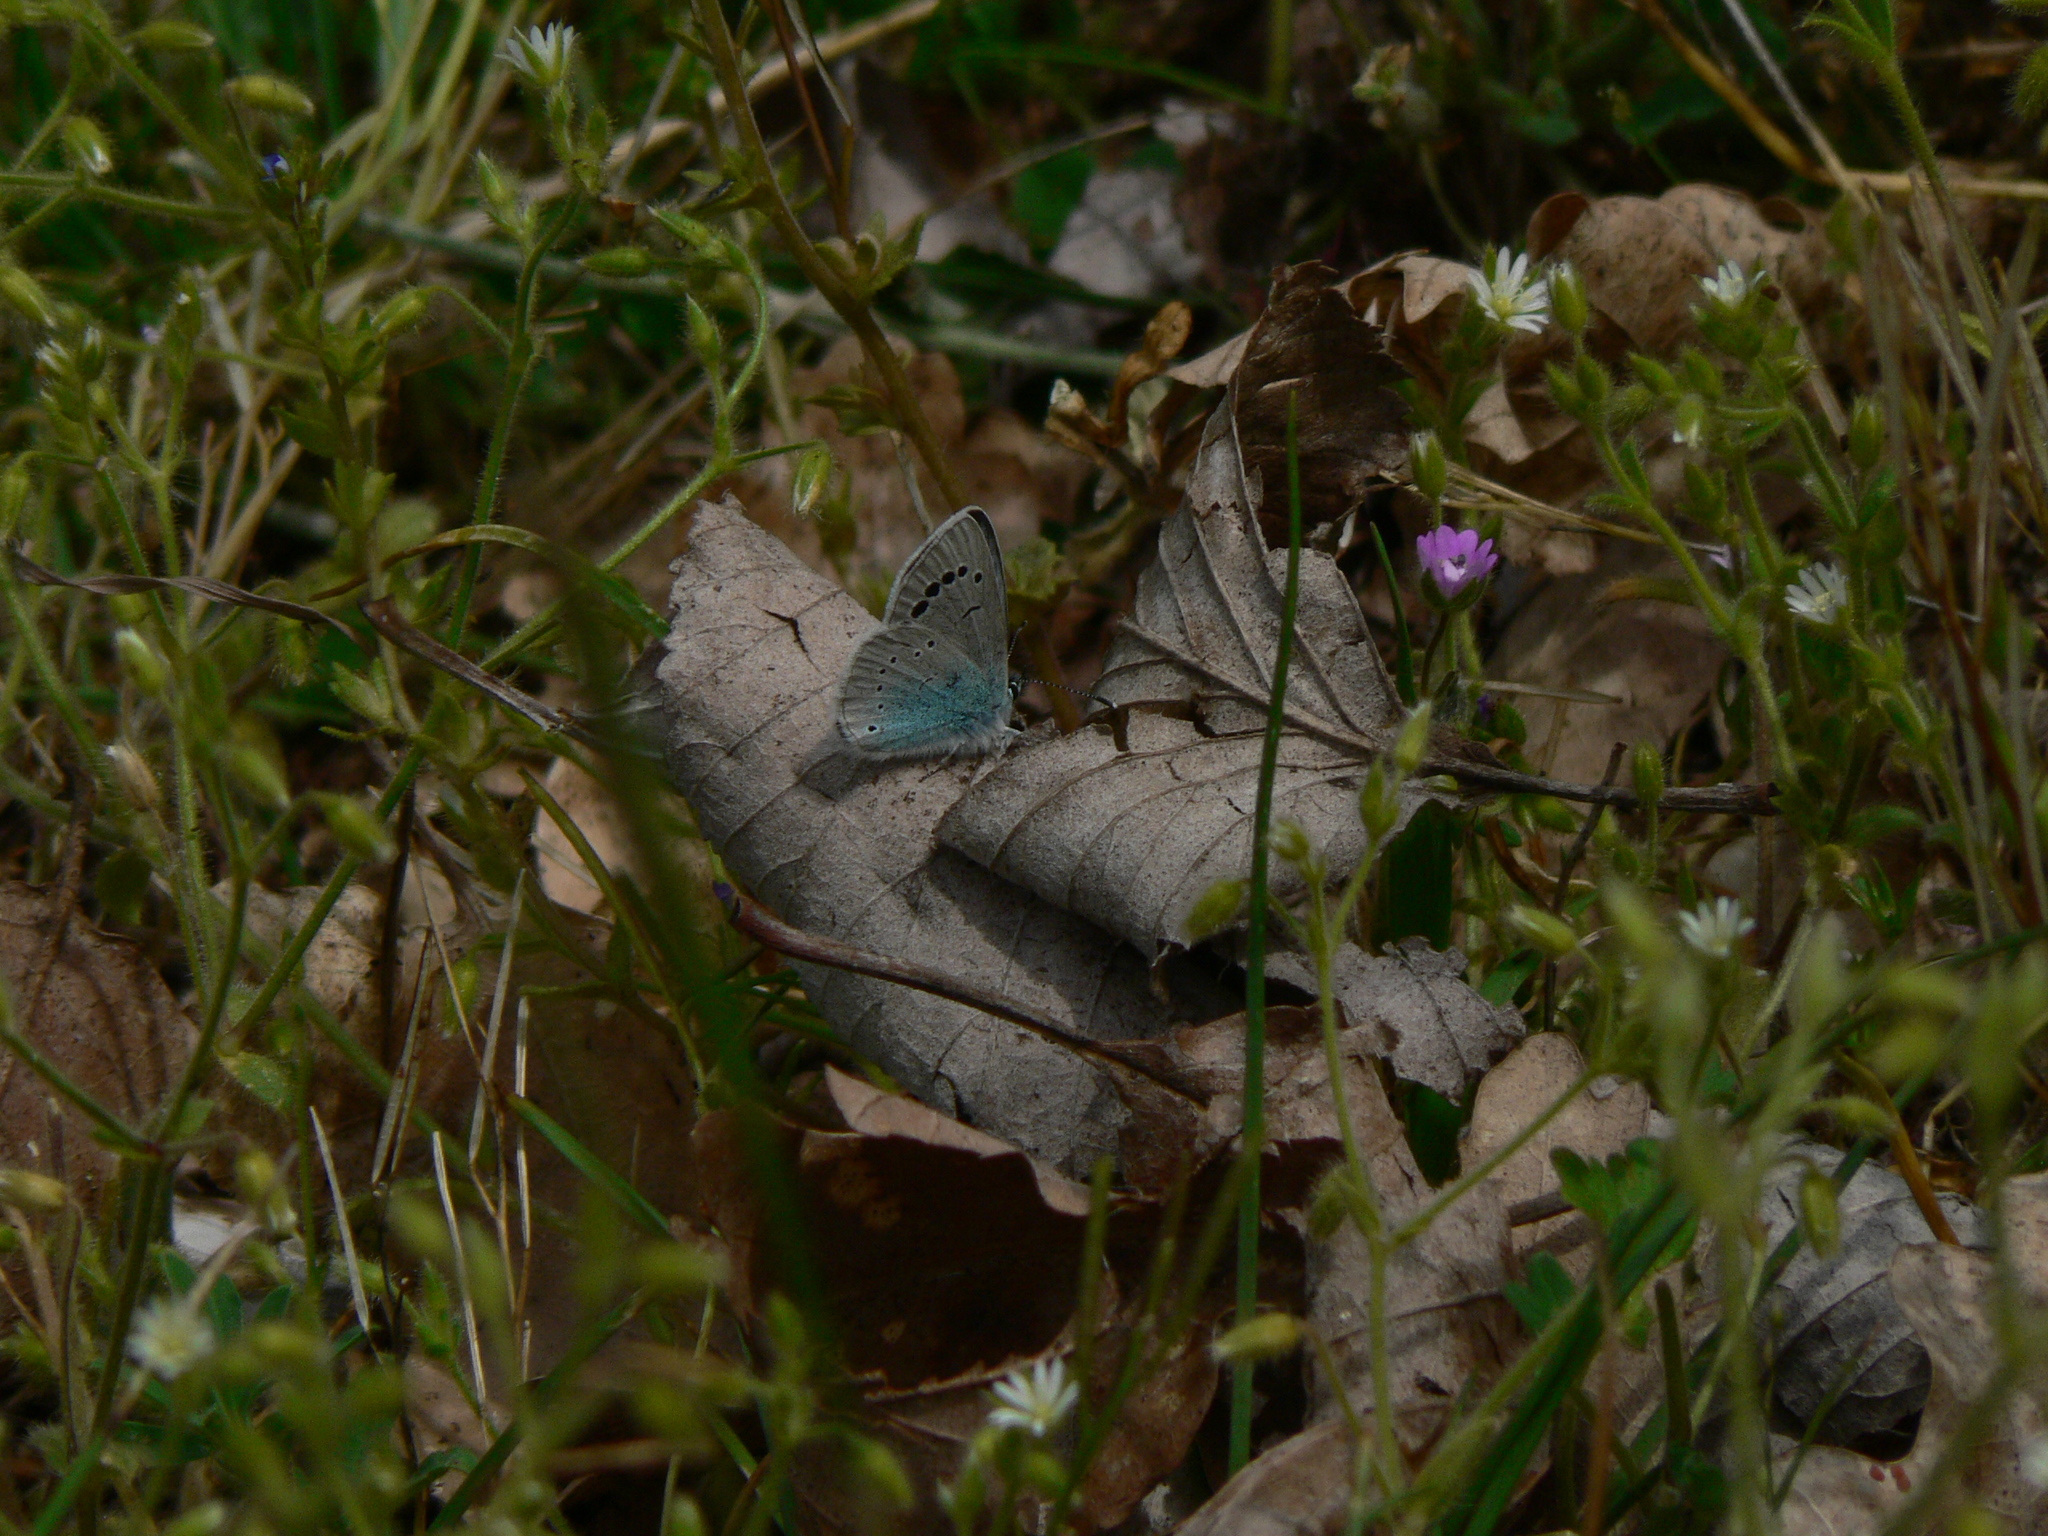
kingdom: Animalia
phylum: Arthropoda
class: Insecta
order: Lepidoptera
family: Lycaenidae
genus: Glaucopsyche
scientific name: Glaucopsyche alexis
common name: Green-underside blue
